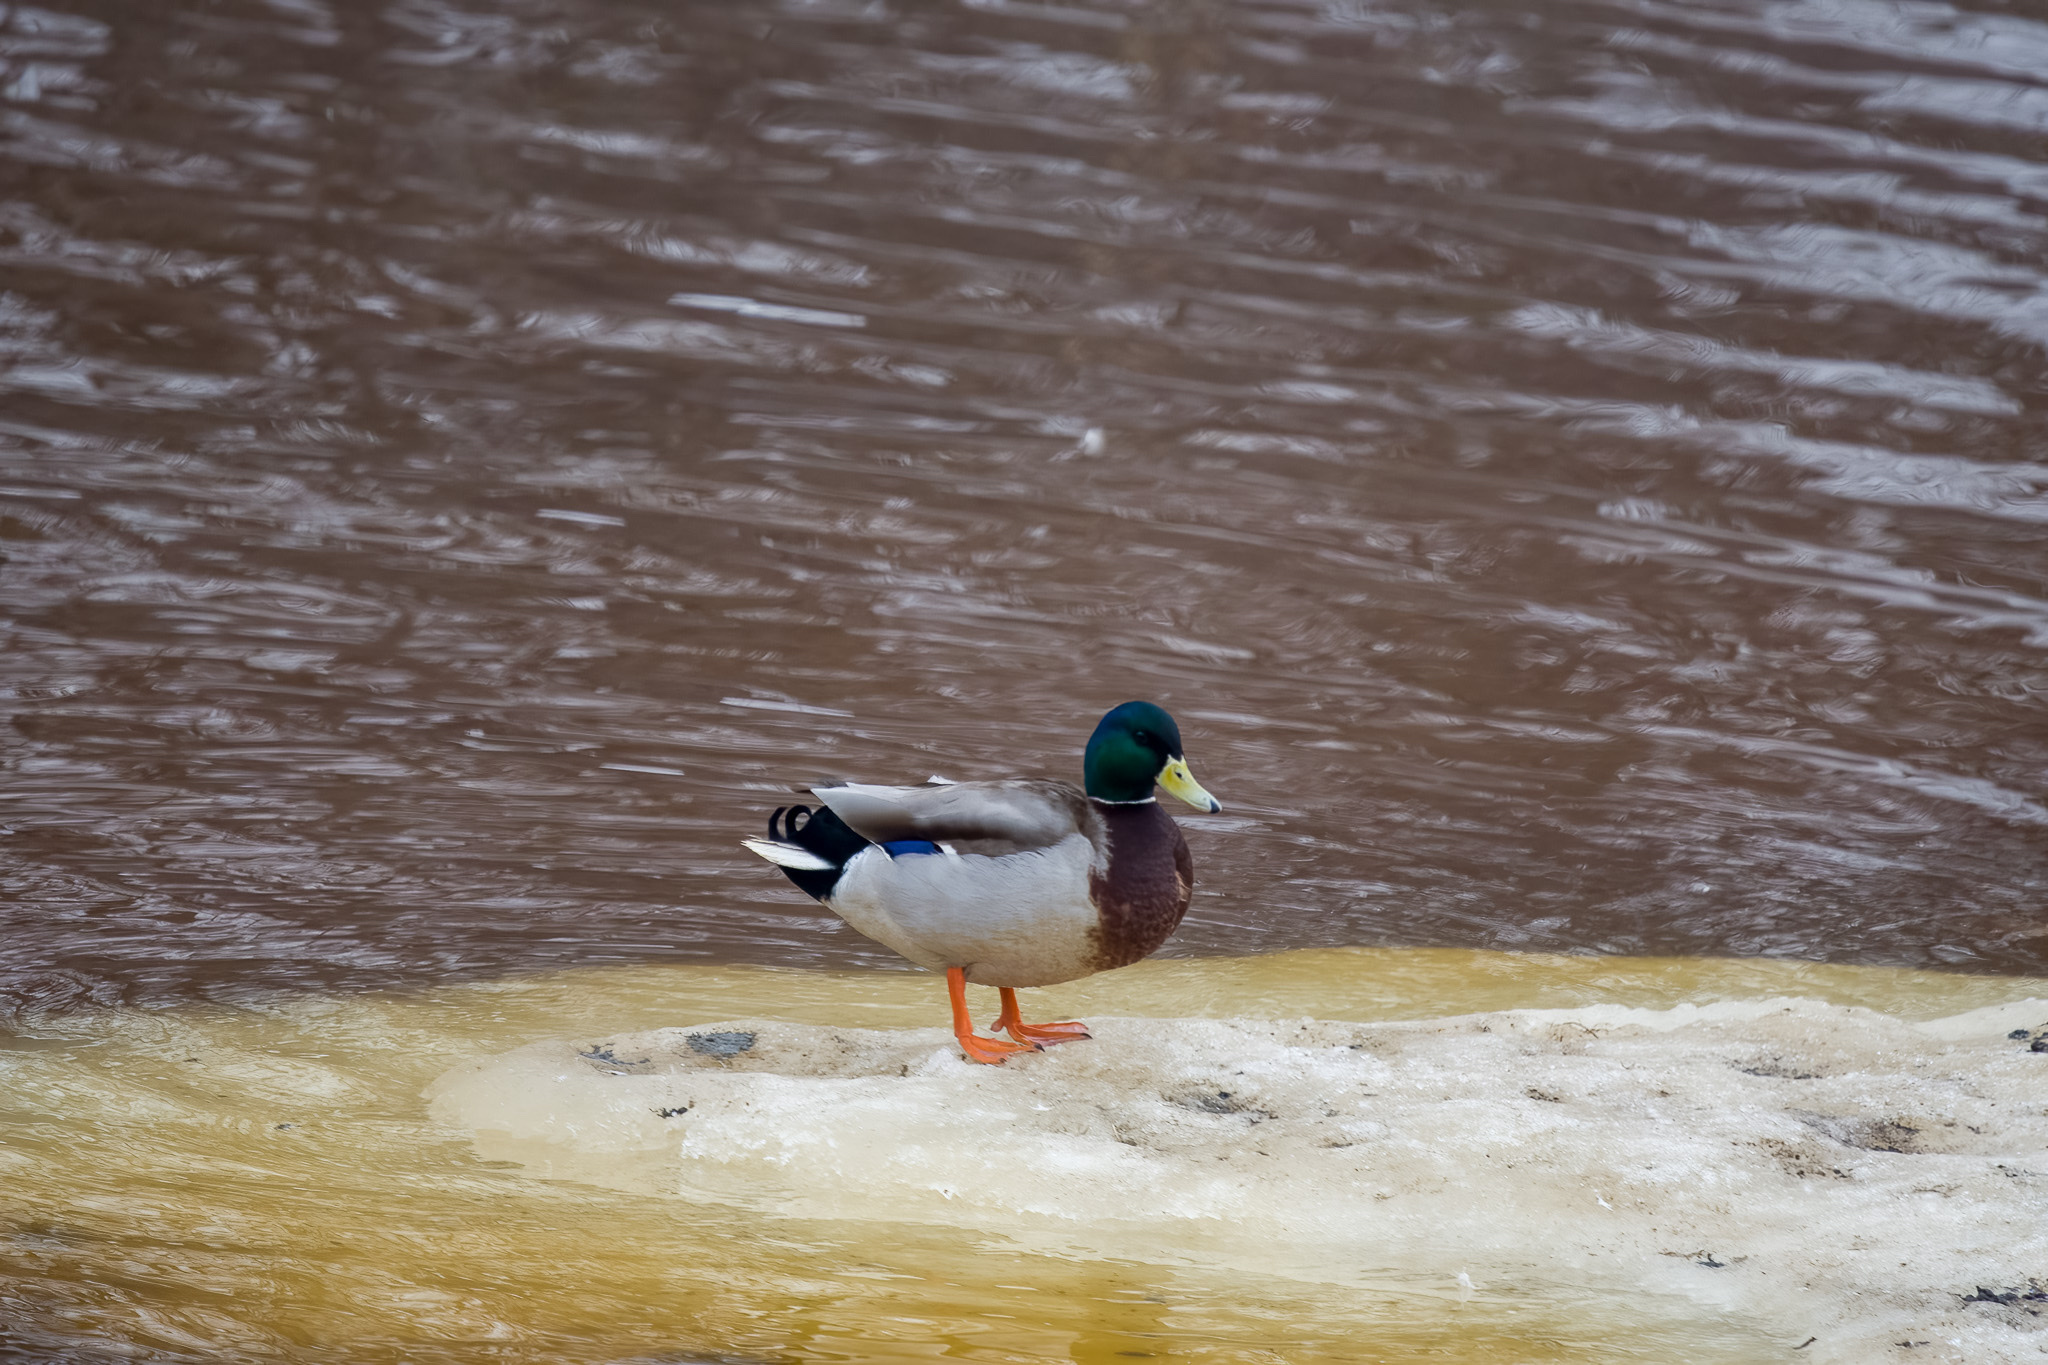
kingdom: Animalia
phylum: Chordata
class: Aves
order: Anseriformes
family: Anatidae
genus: Anas
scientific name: Anas platyrhynchos
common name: Mallard
